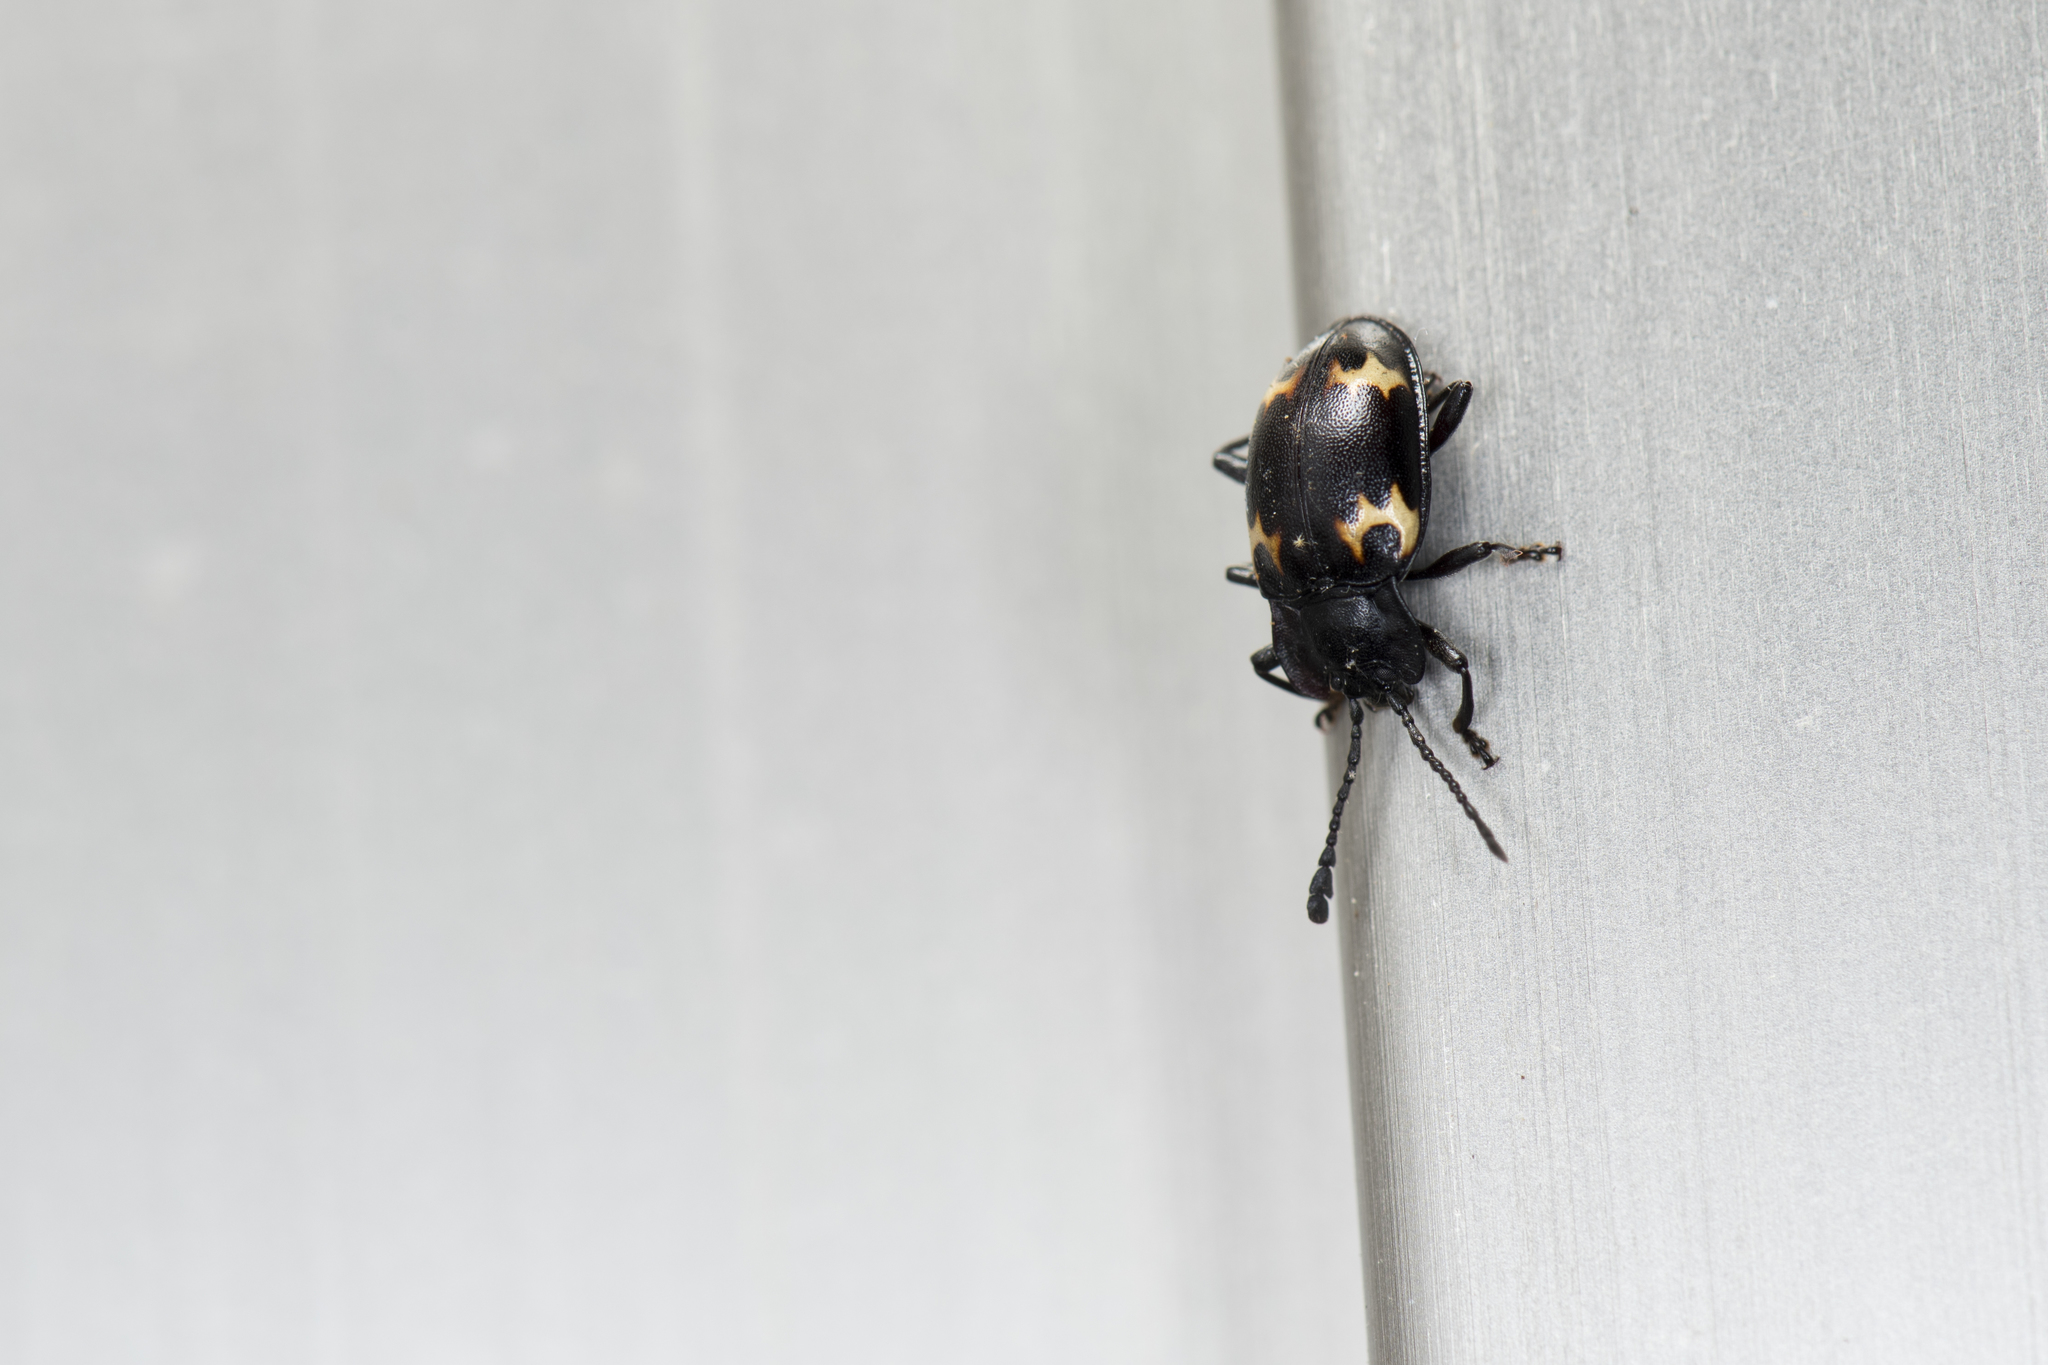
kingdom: Animalia
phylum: Arthropoda
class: Insecta
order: Coleoptera
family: Endomychidae
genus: Ohtaius
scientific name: Ohtaius mushanus
